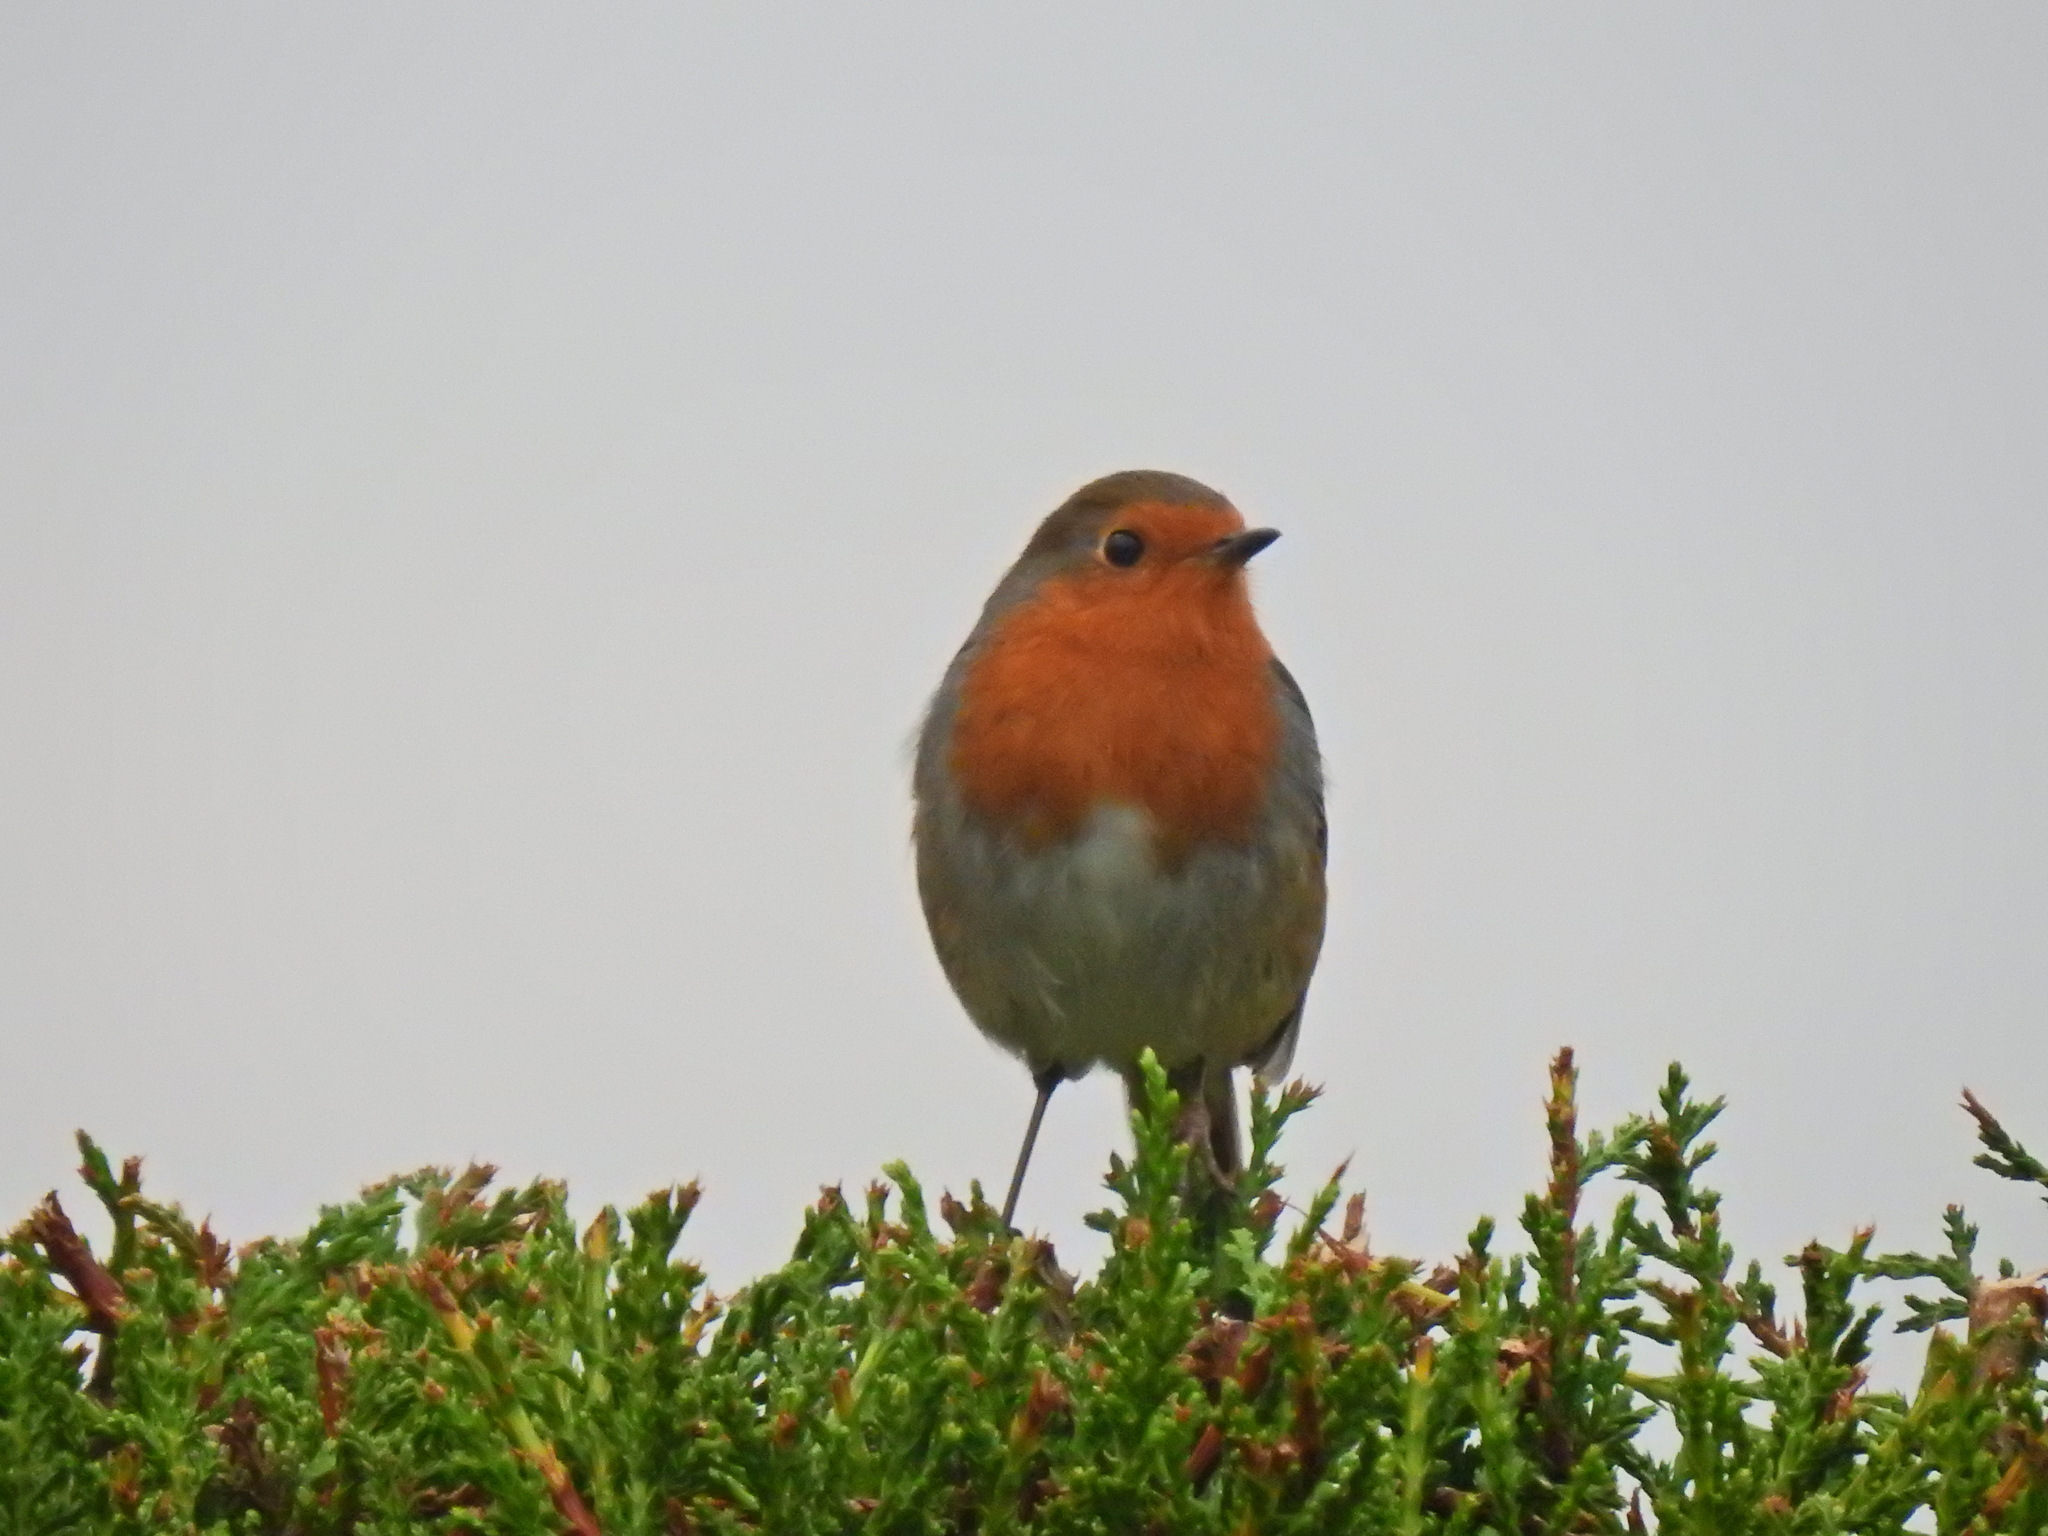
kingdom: Animalia
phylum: Chordata
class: Aves
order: Passeriformes
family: Muscicapidae
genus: Erithacus
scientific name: Erithacus rubecula
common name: European robin
